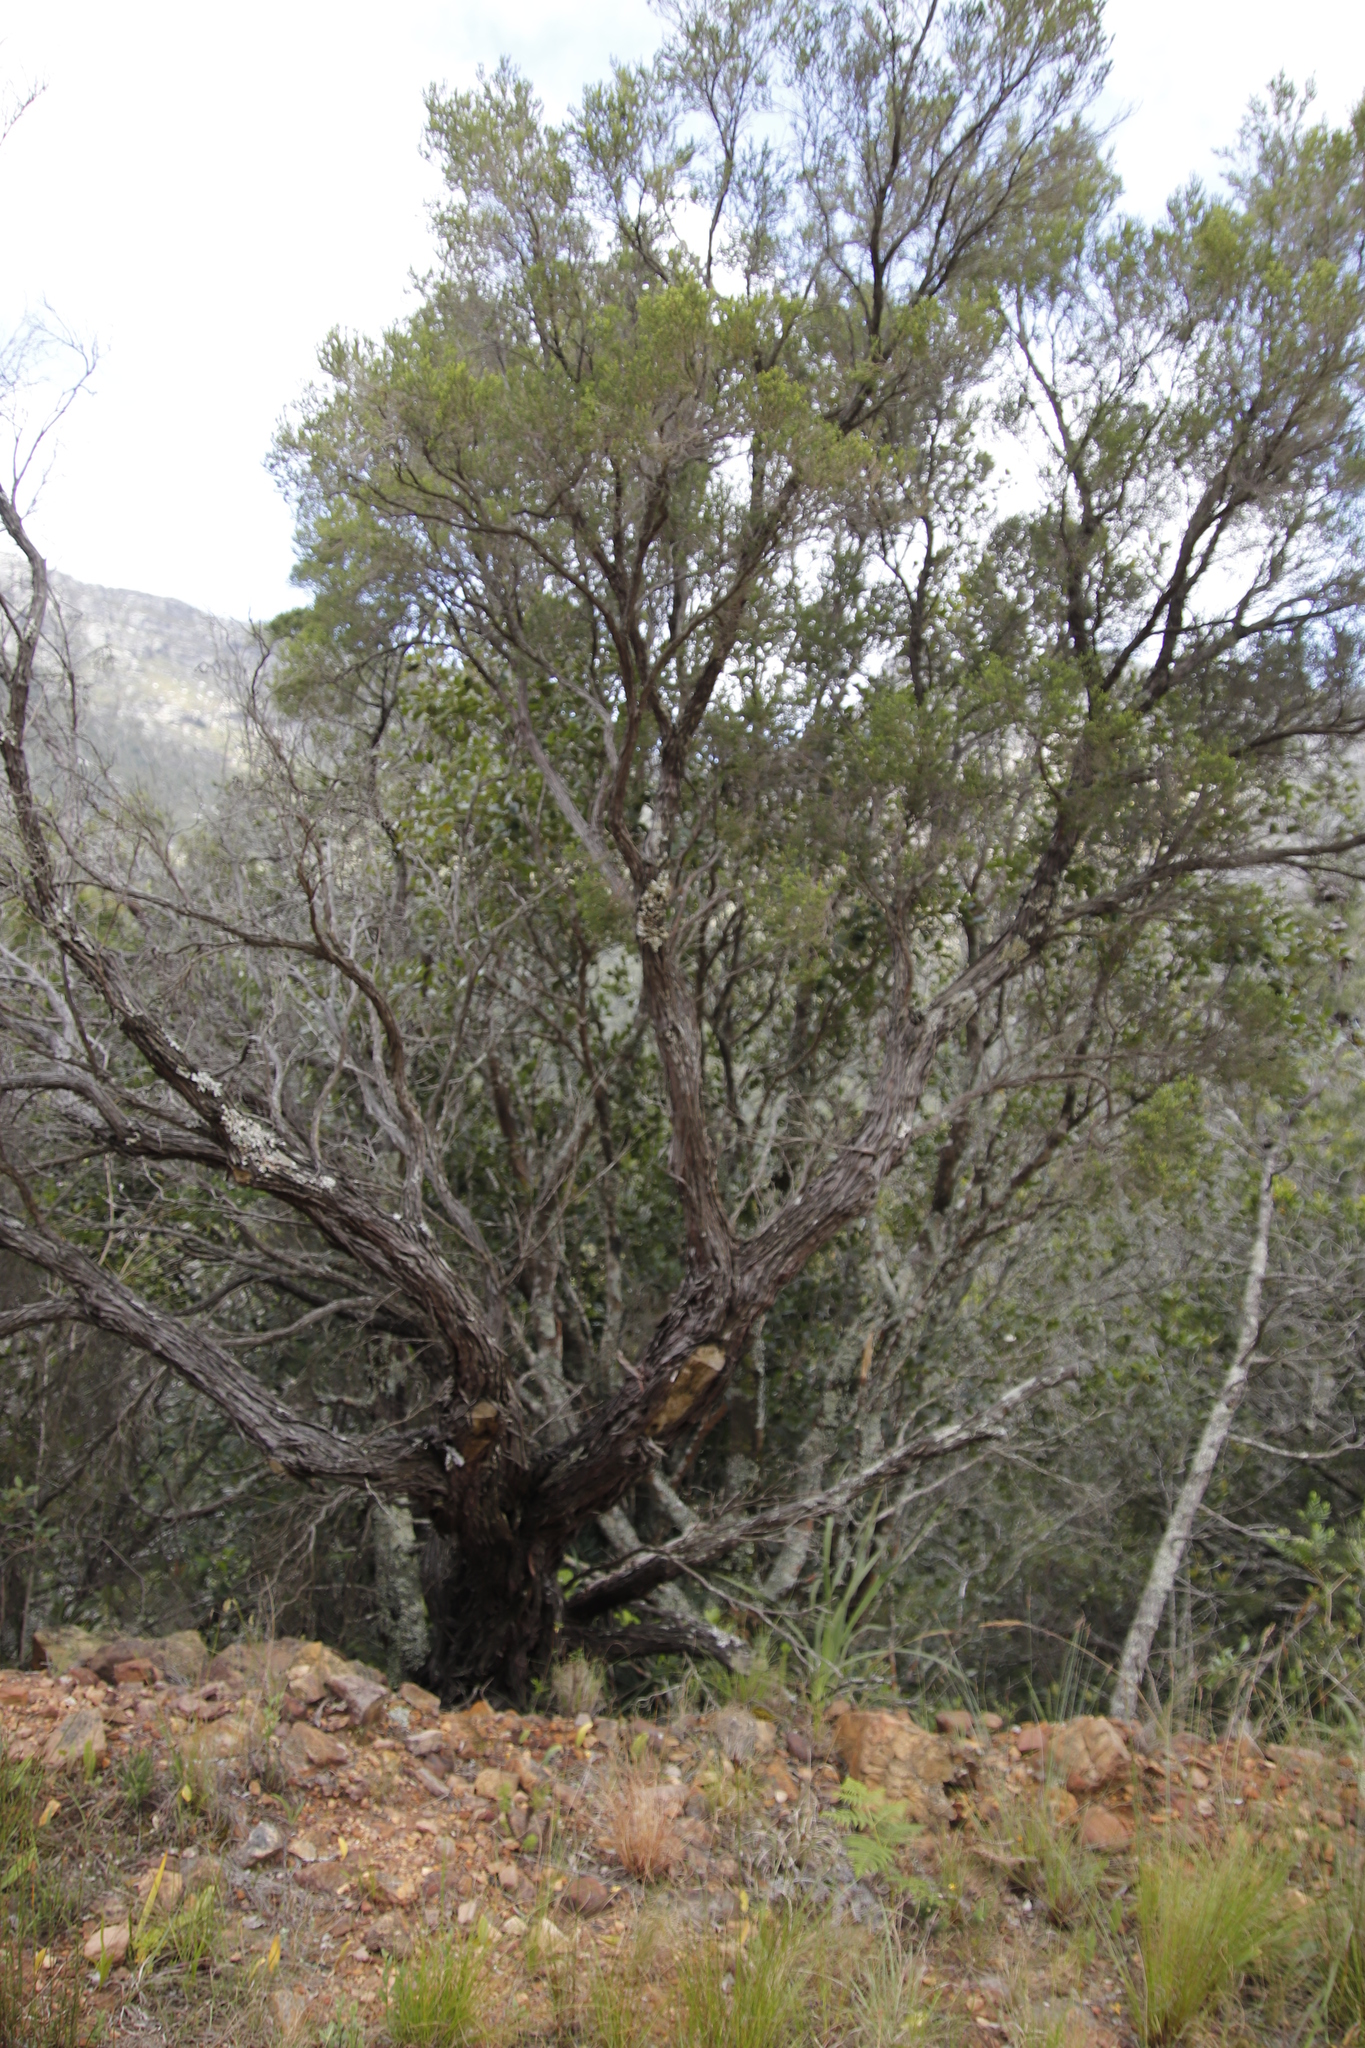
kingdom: Plantae
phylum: Tracheophyta
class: Magnoliopsida
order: Ericales
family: Ericaceae
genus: Erica
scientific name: Erica tristis
